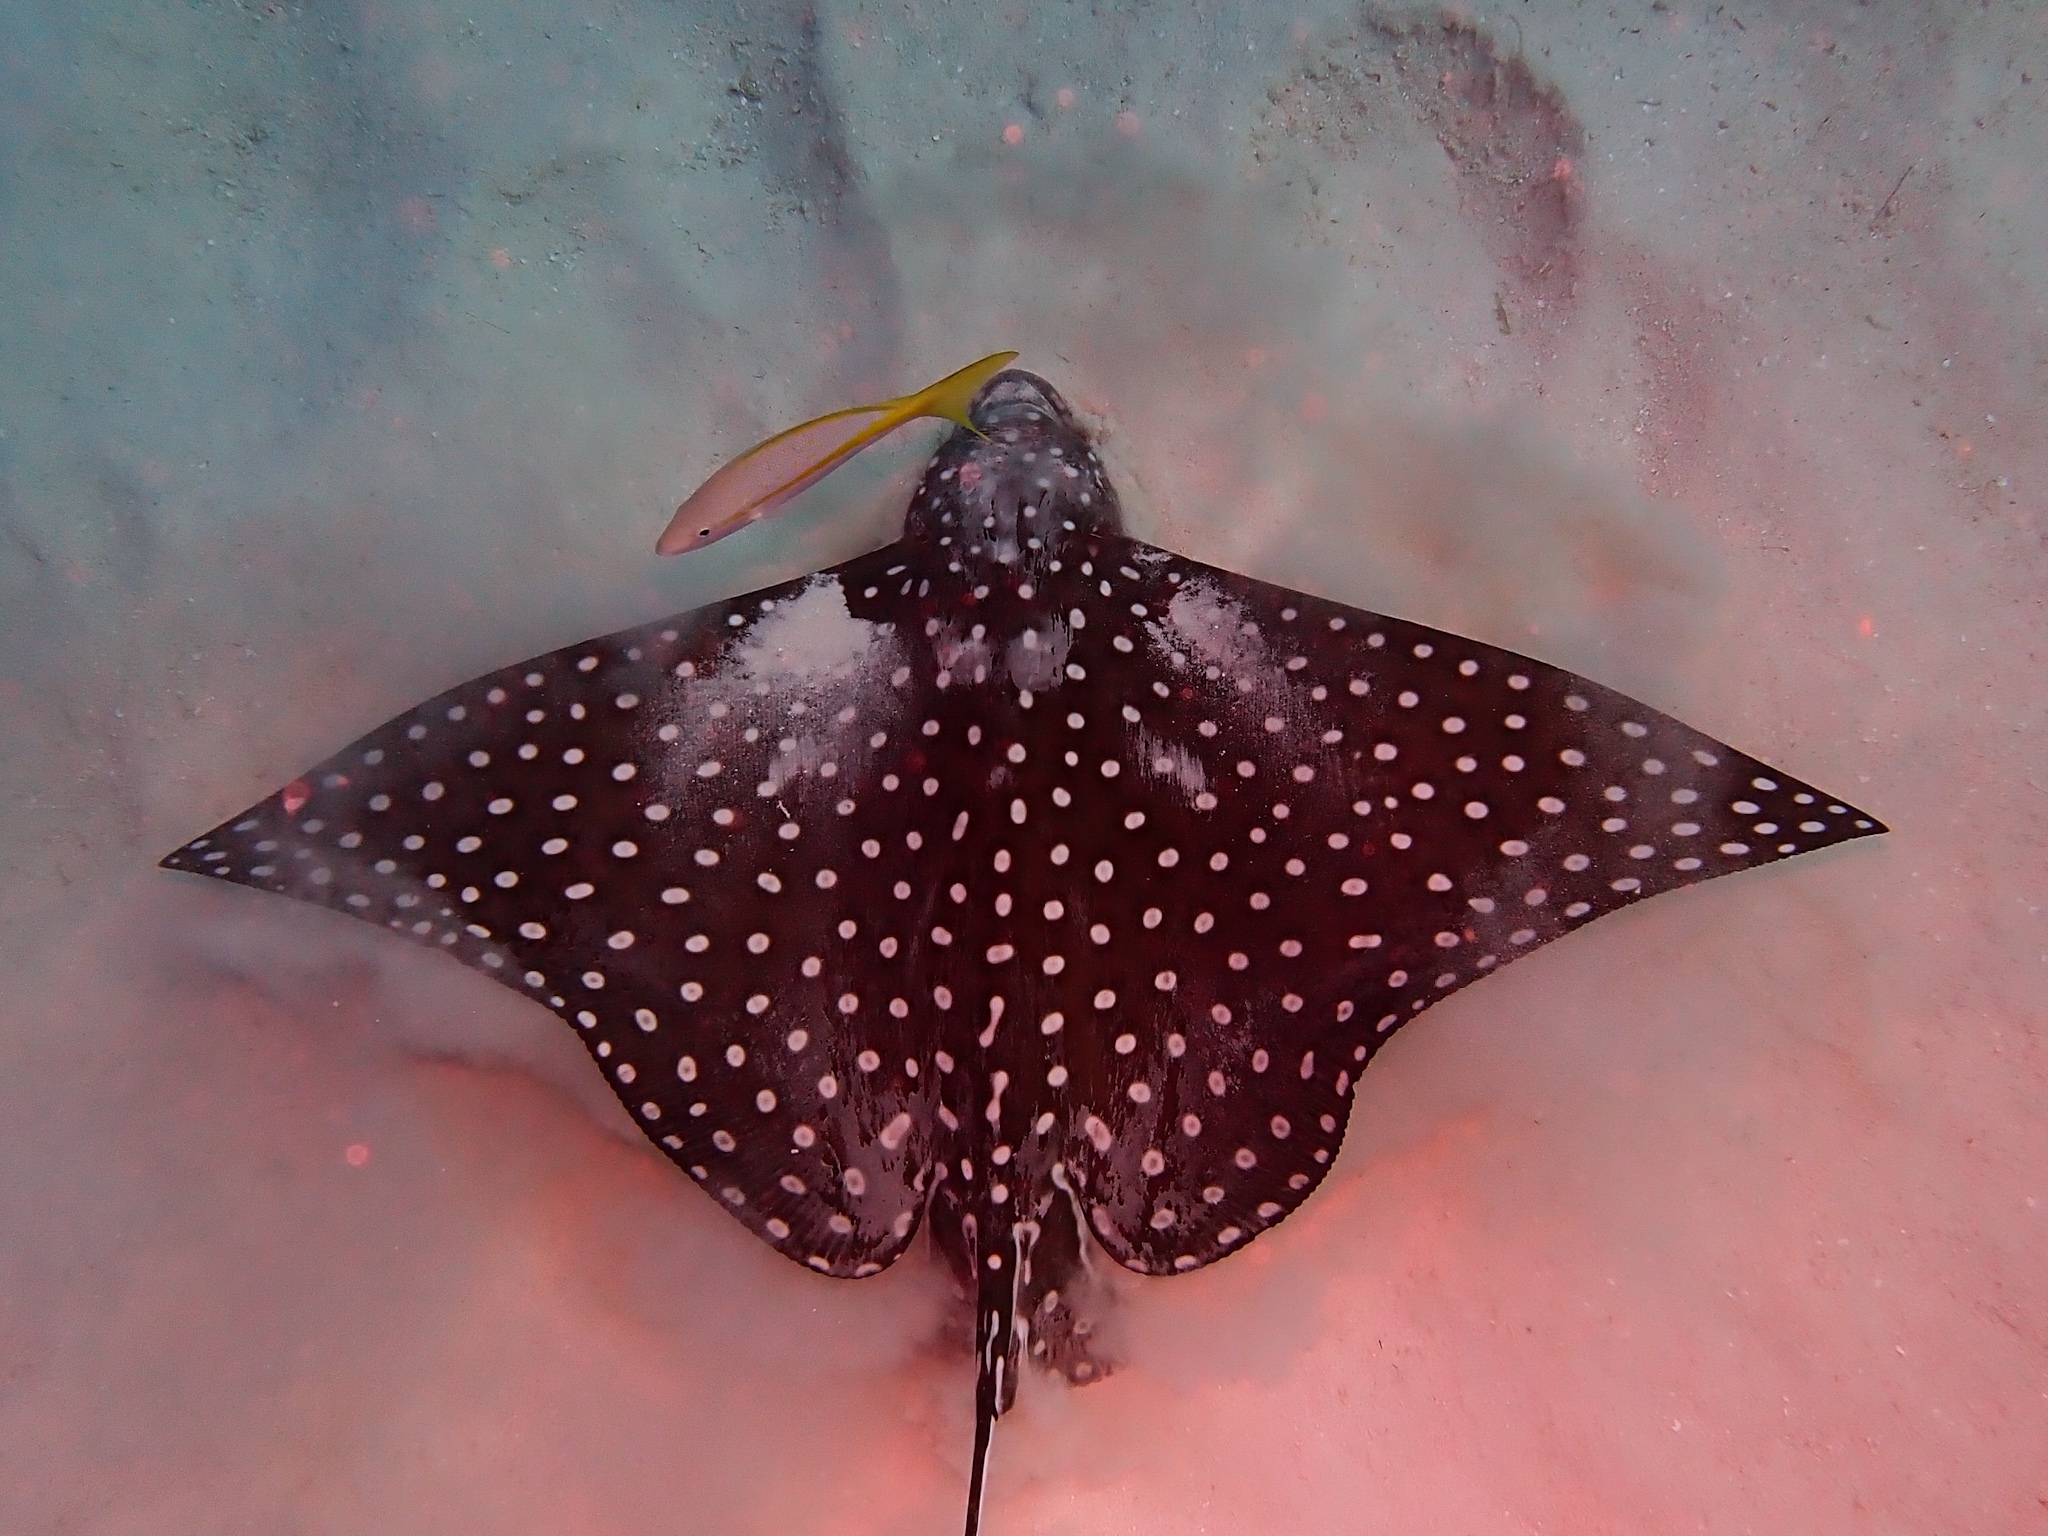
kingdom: Animalia
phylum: Chordata
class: Elasmobranchii
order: Myliobatiformes
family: Myliobatidae
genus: Aetobatus
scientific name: Aetobatus narinari
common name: Spotted eagle ray
